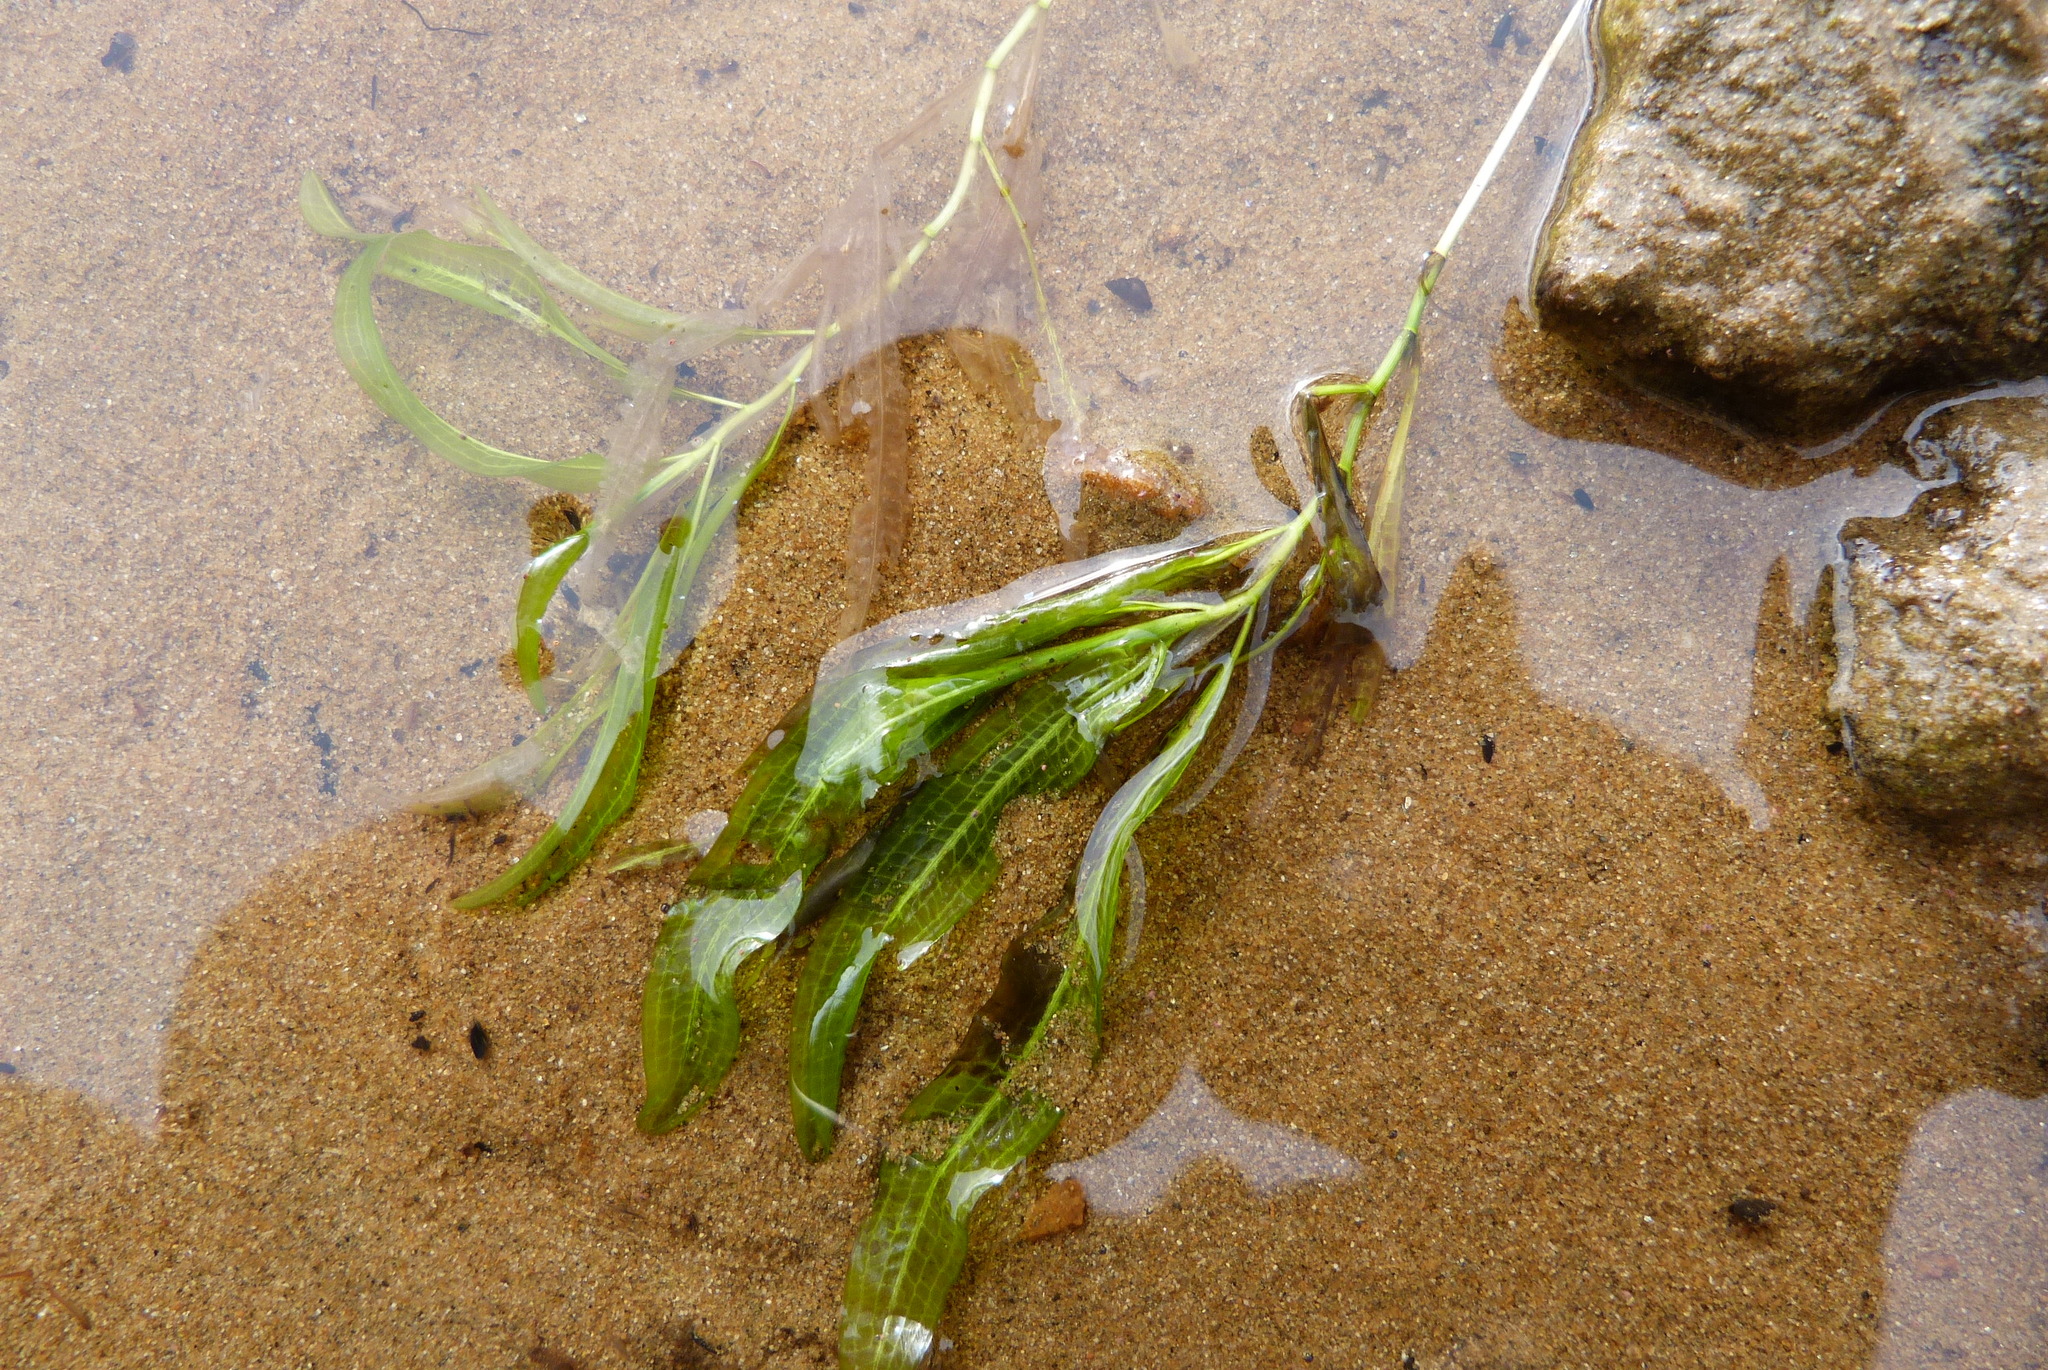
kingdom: Plantae
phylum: Tracheophyta
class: Liliopsida
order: Alismatales
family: Potamogetonaceae
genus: Potamogeton
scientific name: Potamogeton ochreatus
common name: Blunt pondweed
